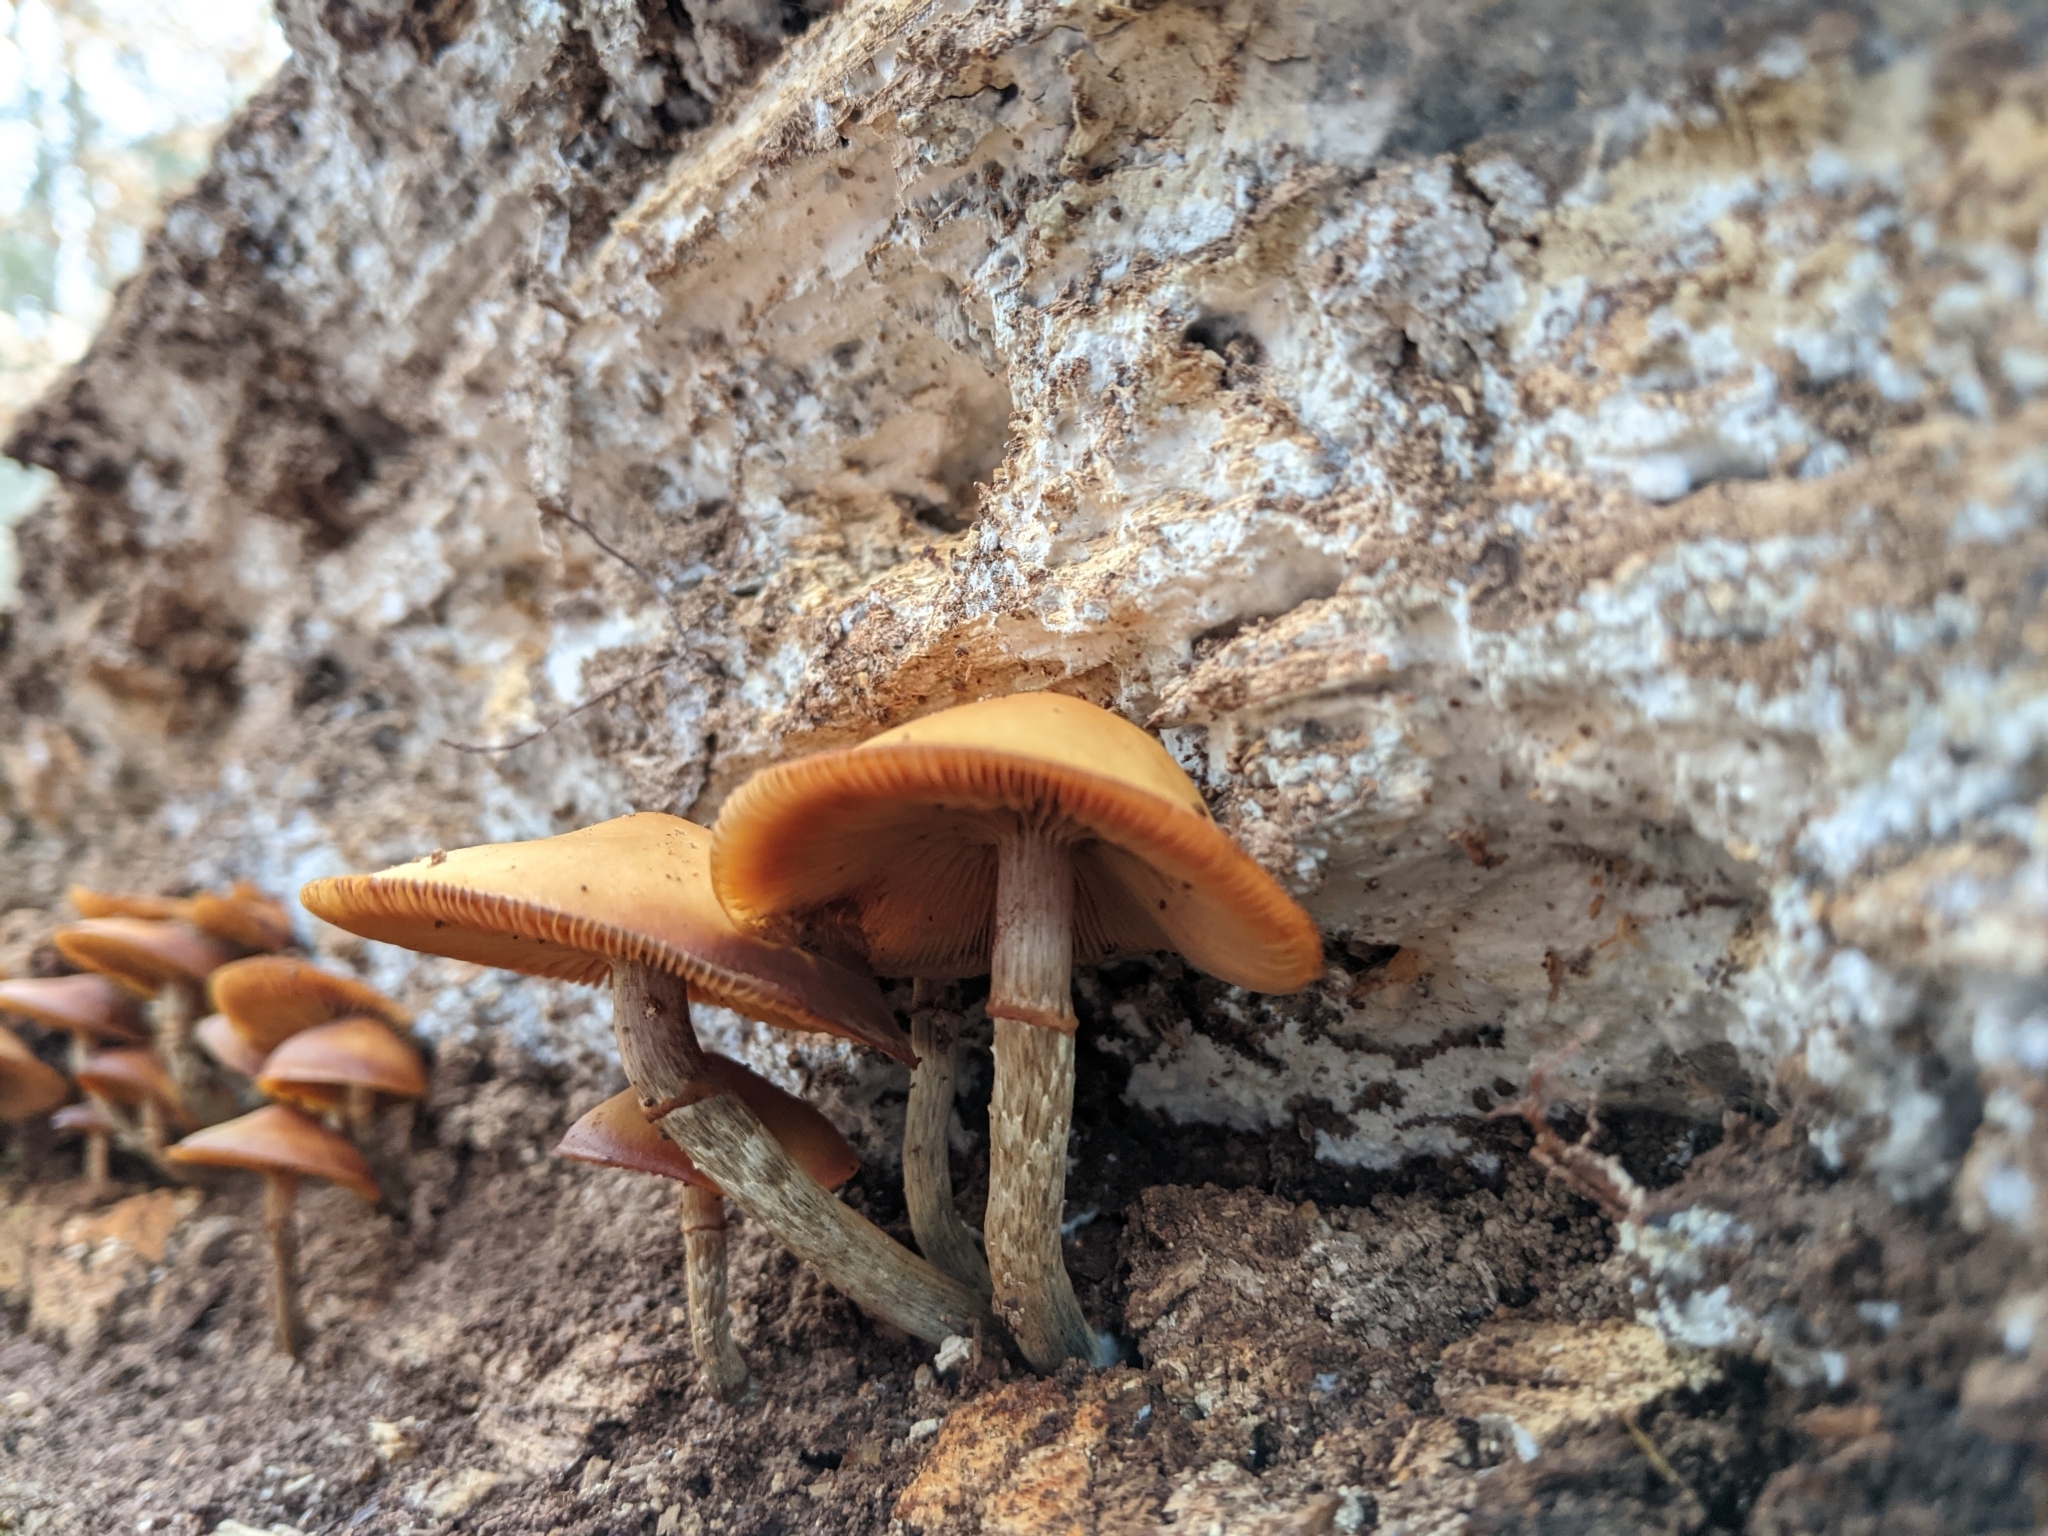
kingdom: Fungi
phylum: Basidiomycota
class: Agaricomycetes
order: Agaricales
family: Strophariaceae
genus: Kuehneromyces
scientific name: Kuehneromyces mutabilis
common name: Sheathed woodtuft
